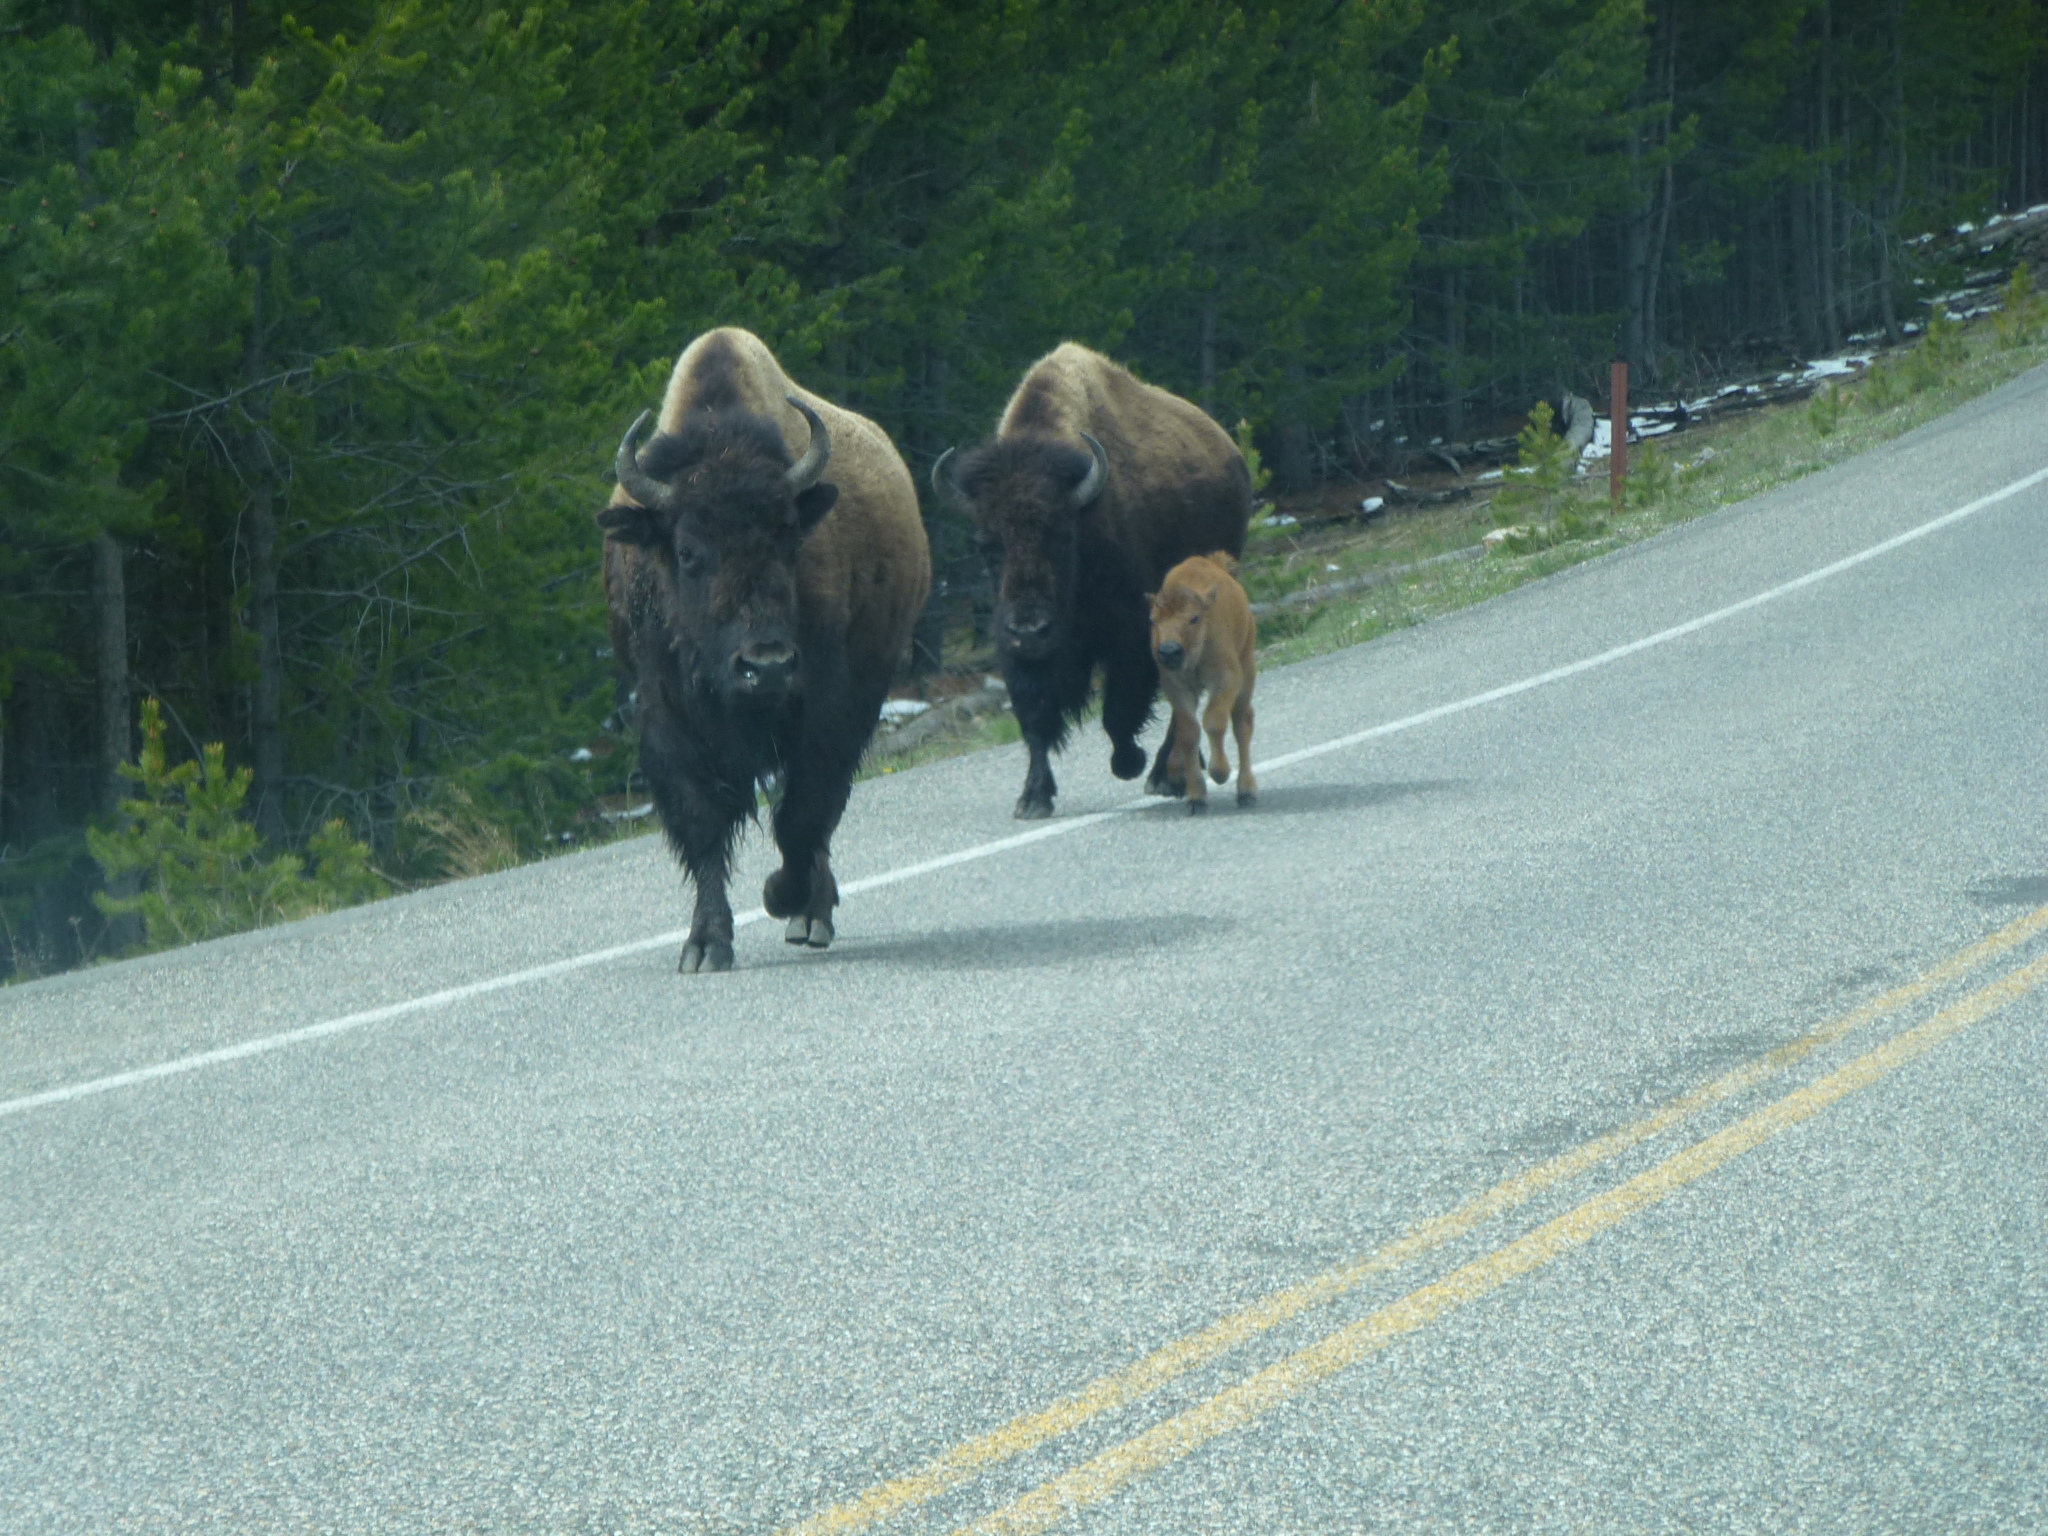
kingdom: Animalia
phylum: Chordata
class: Mammalia
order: Artiodactyla
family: Bovidae
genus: Bison
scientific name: Bison bison
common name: American bison
